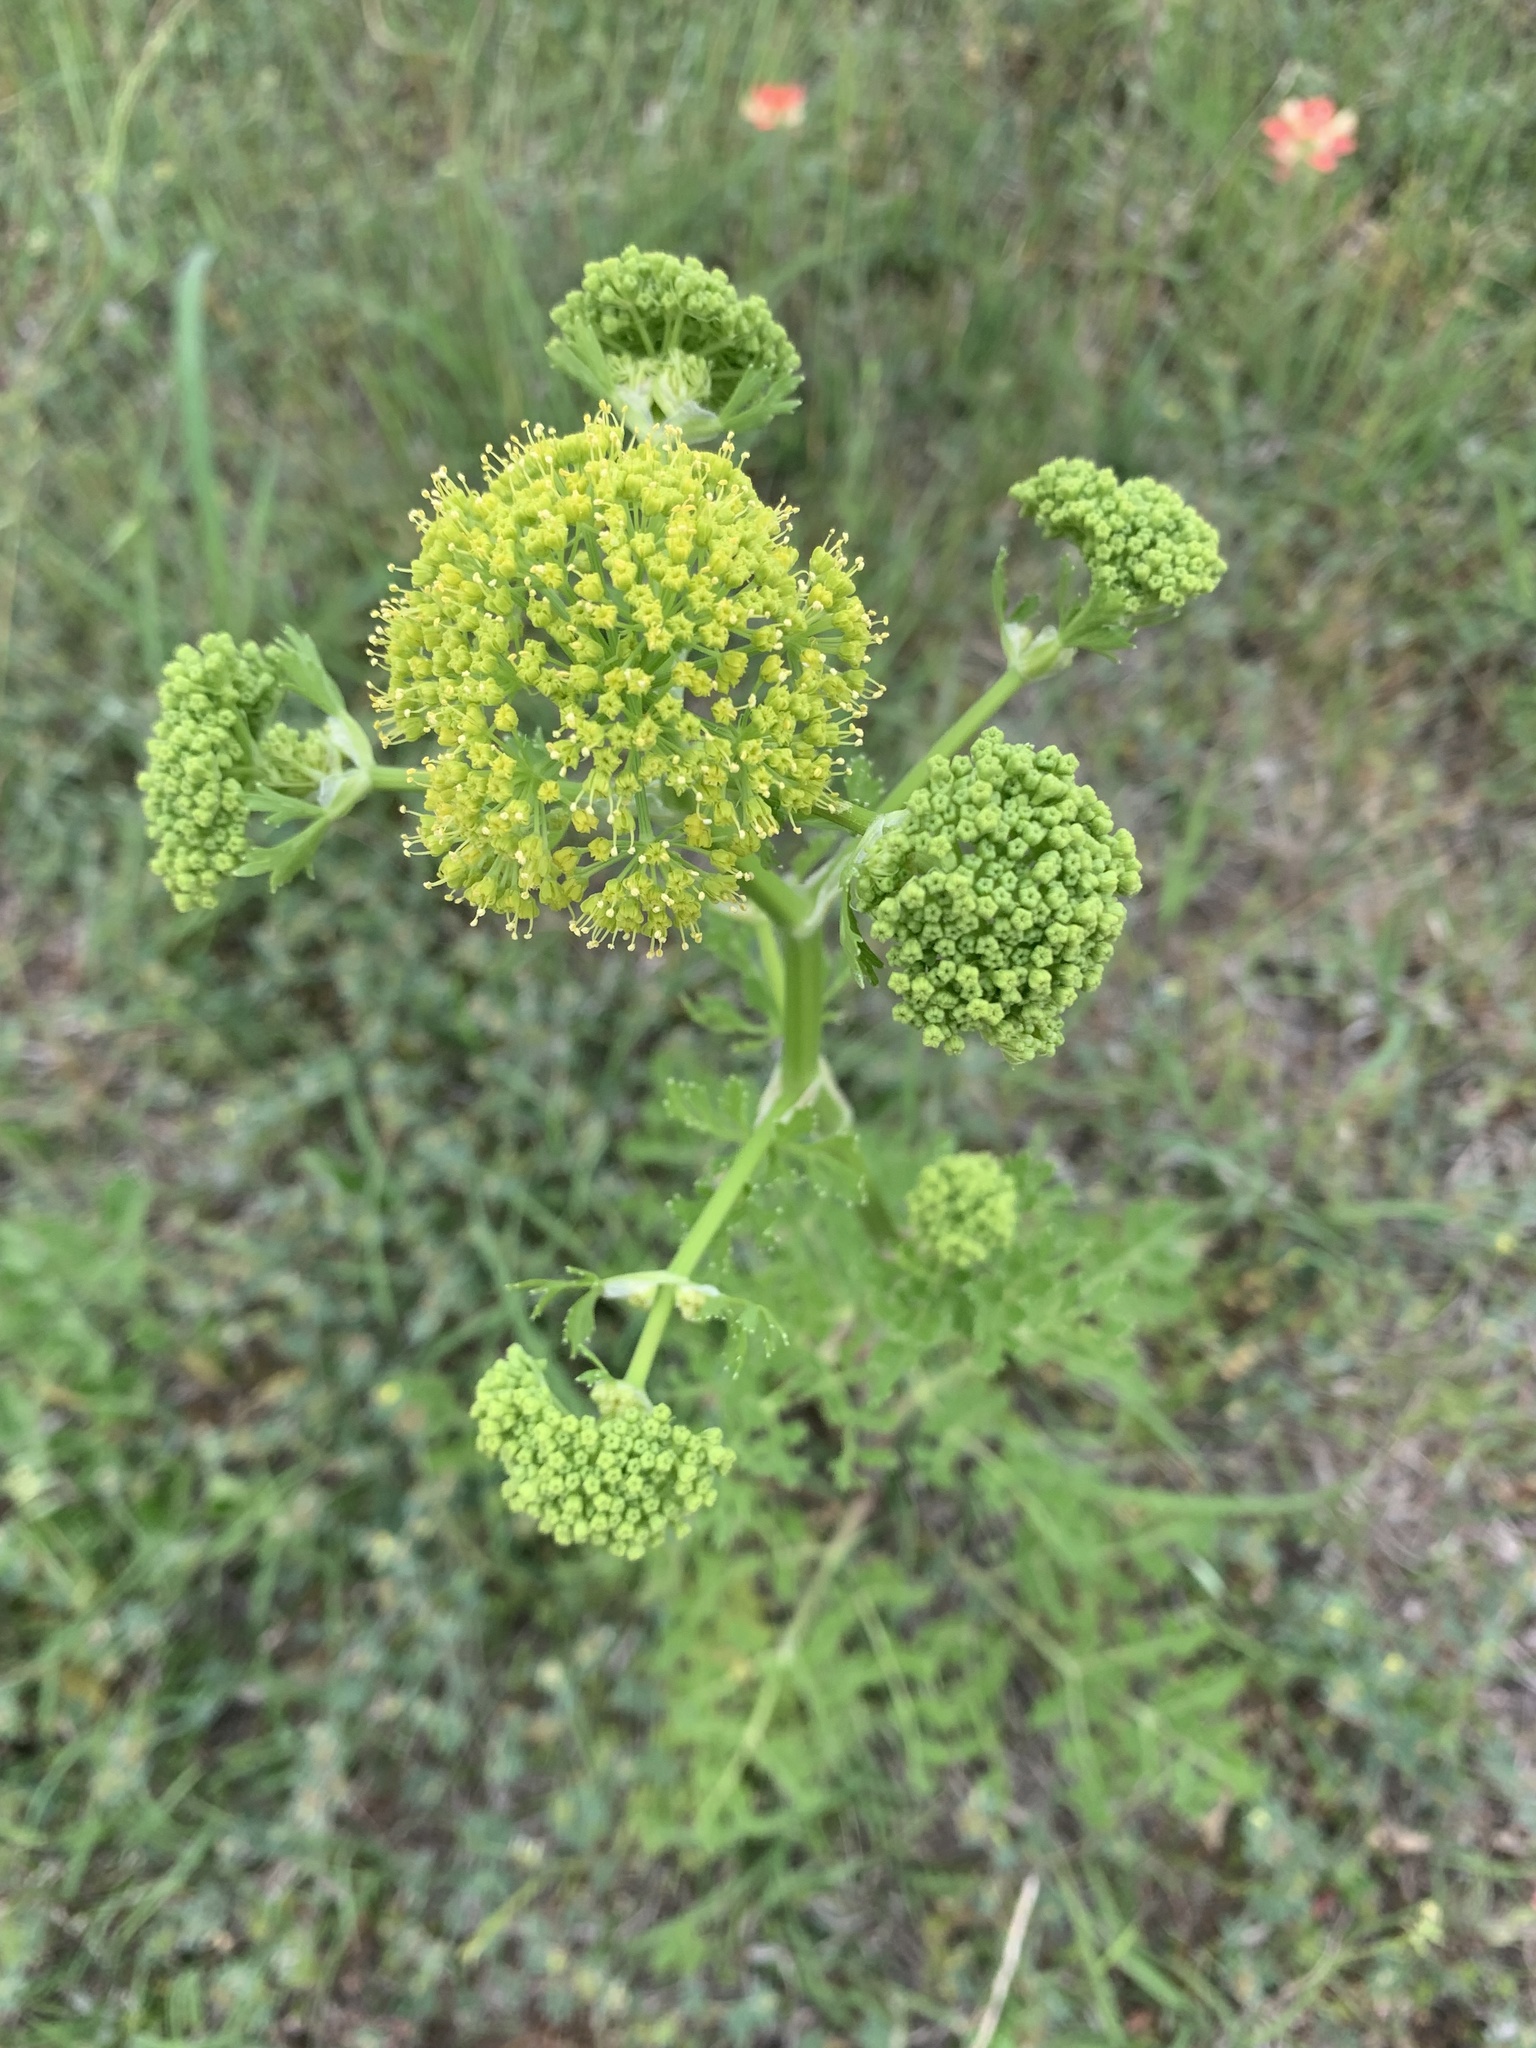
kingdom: Plantae
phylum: Tracheophyta
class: Magnoliopsida
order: Apiales
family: Apiaceae
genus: Polytaenia
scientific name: Polytaenia texana
